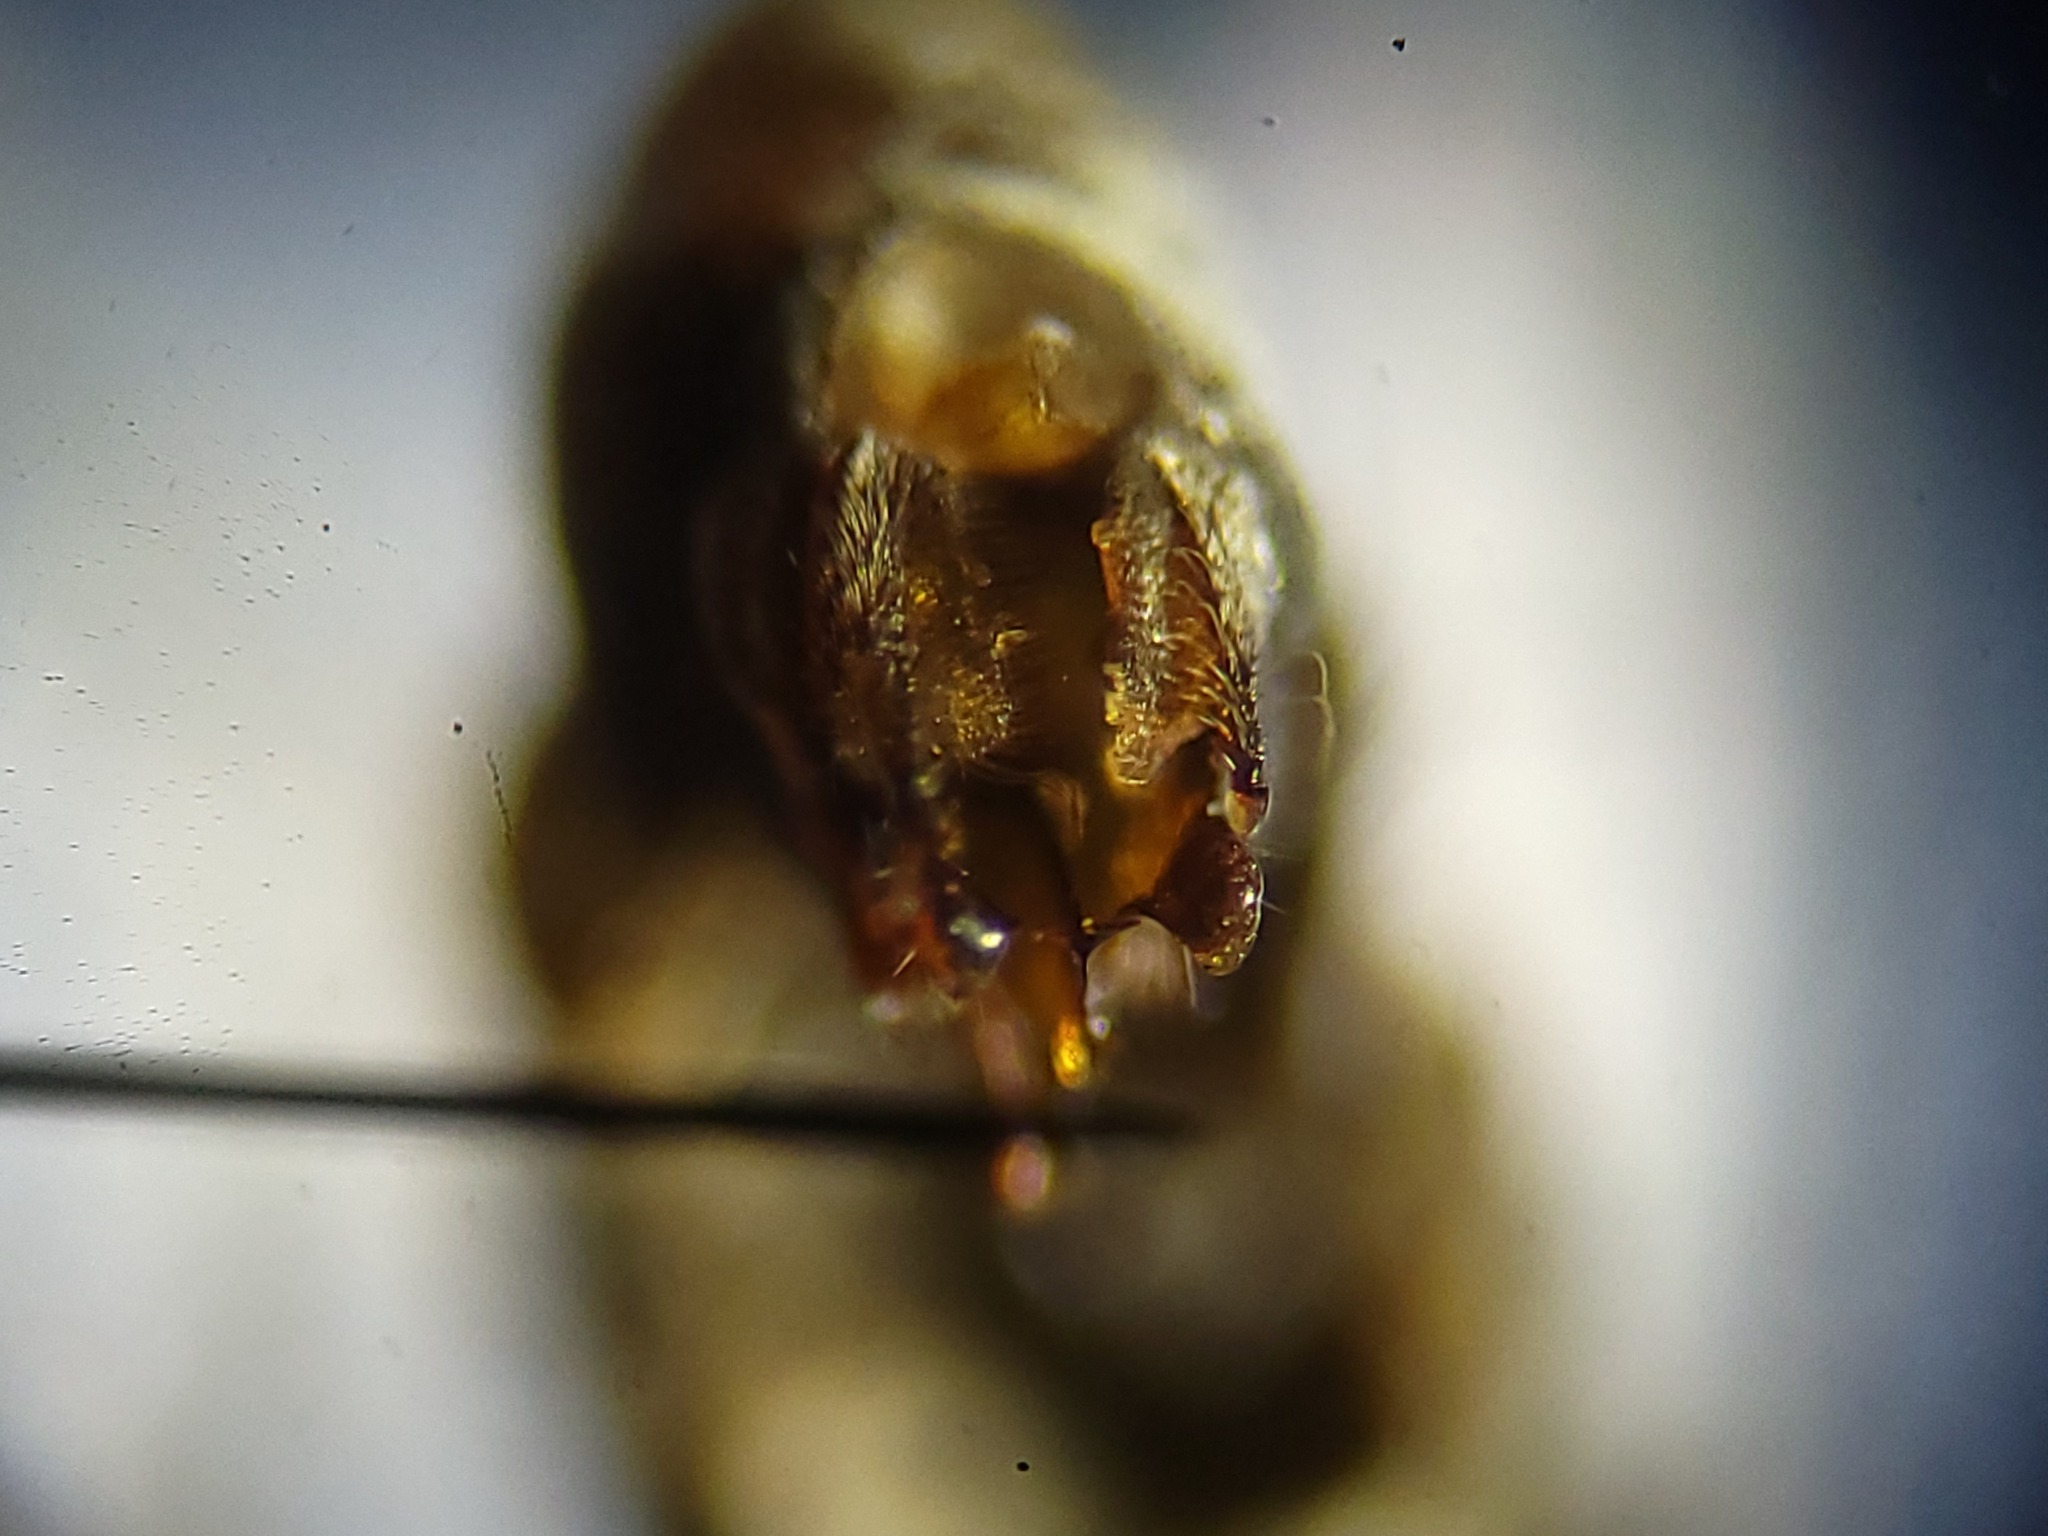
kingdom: Animalia
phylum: Arthropoda
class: Insecta
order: Diptera
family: Dolichopodidae
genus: Hypocharassus
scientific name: Hypocharassus pruinosus
